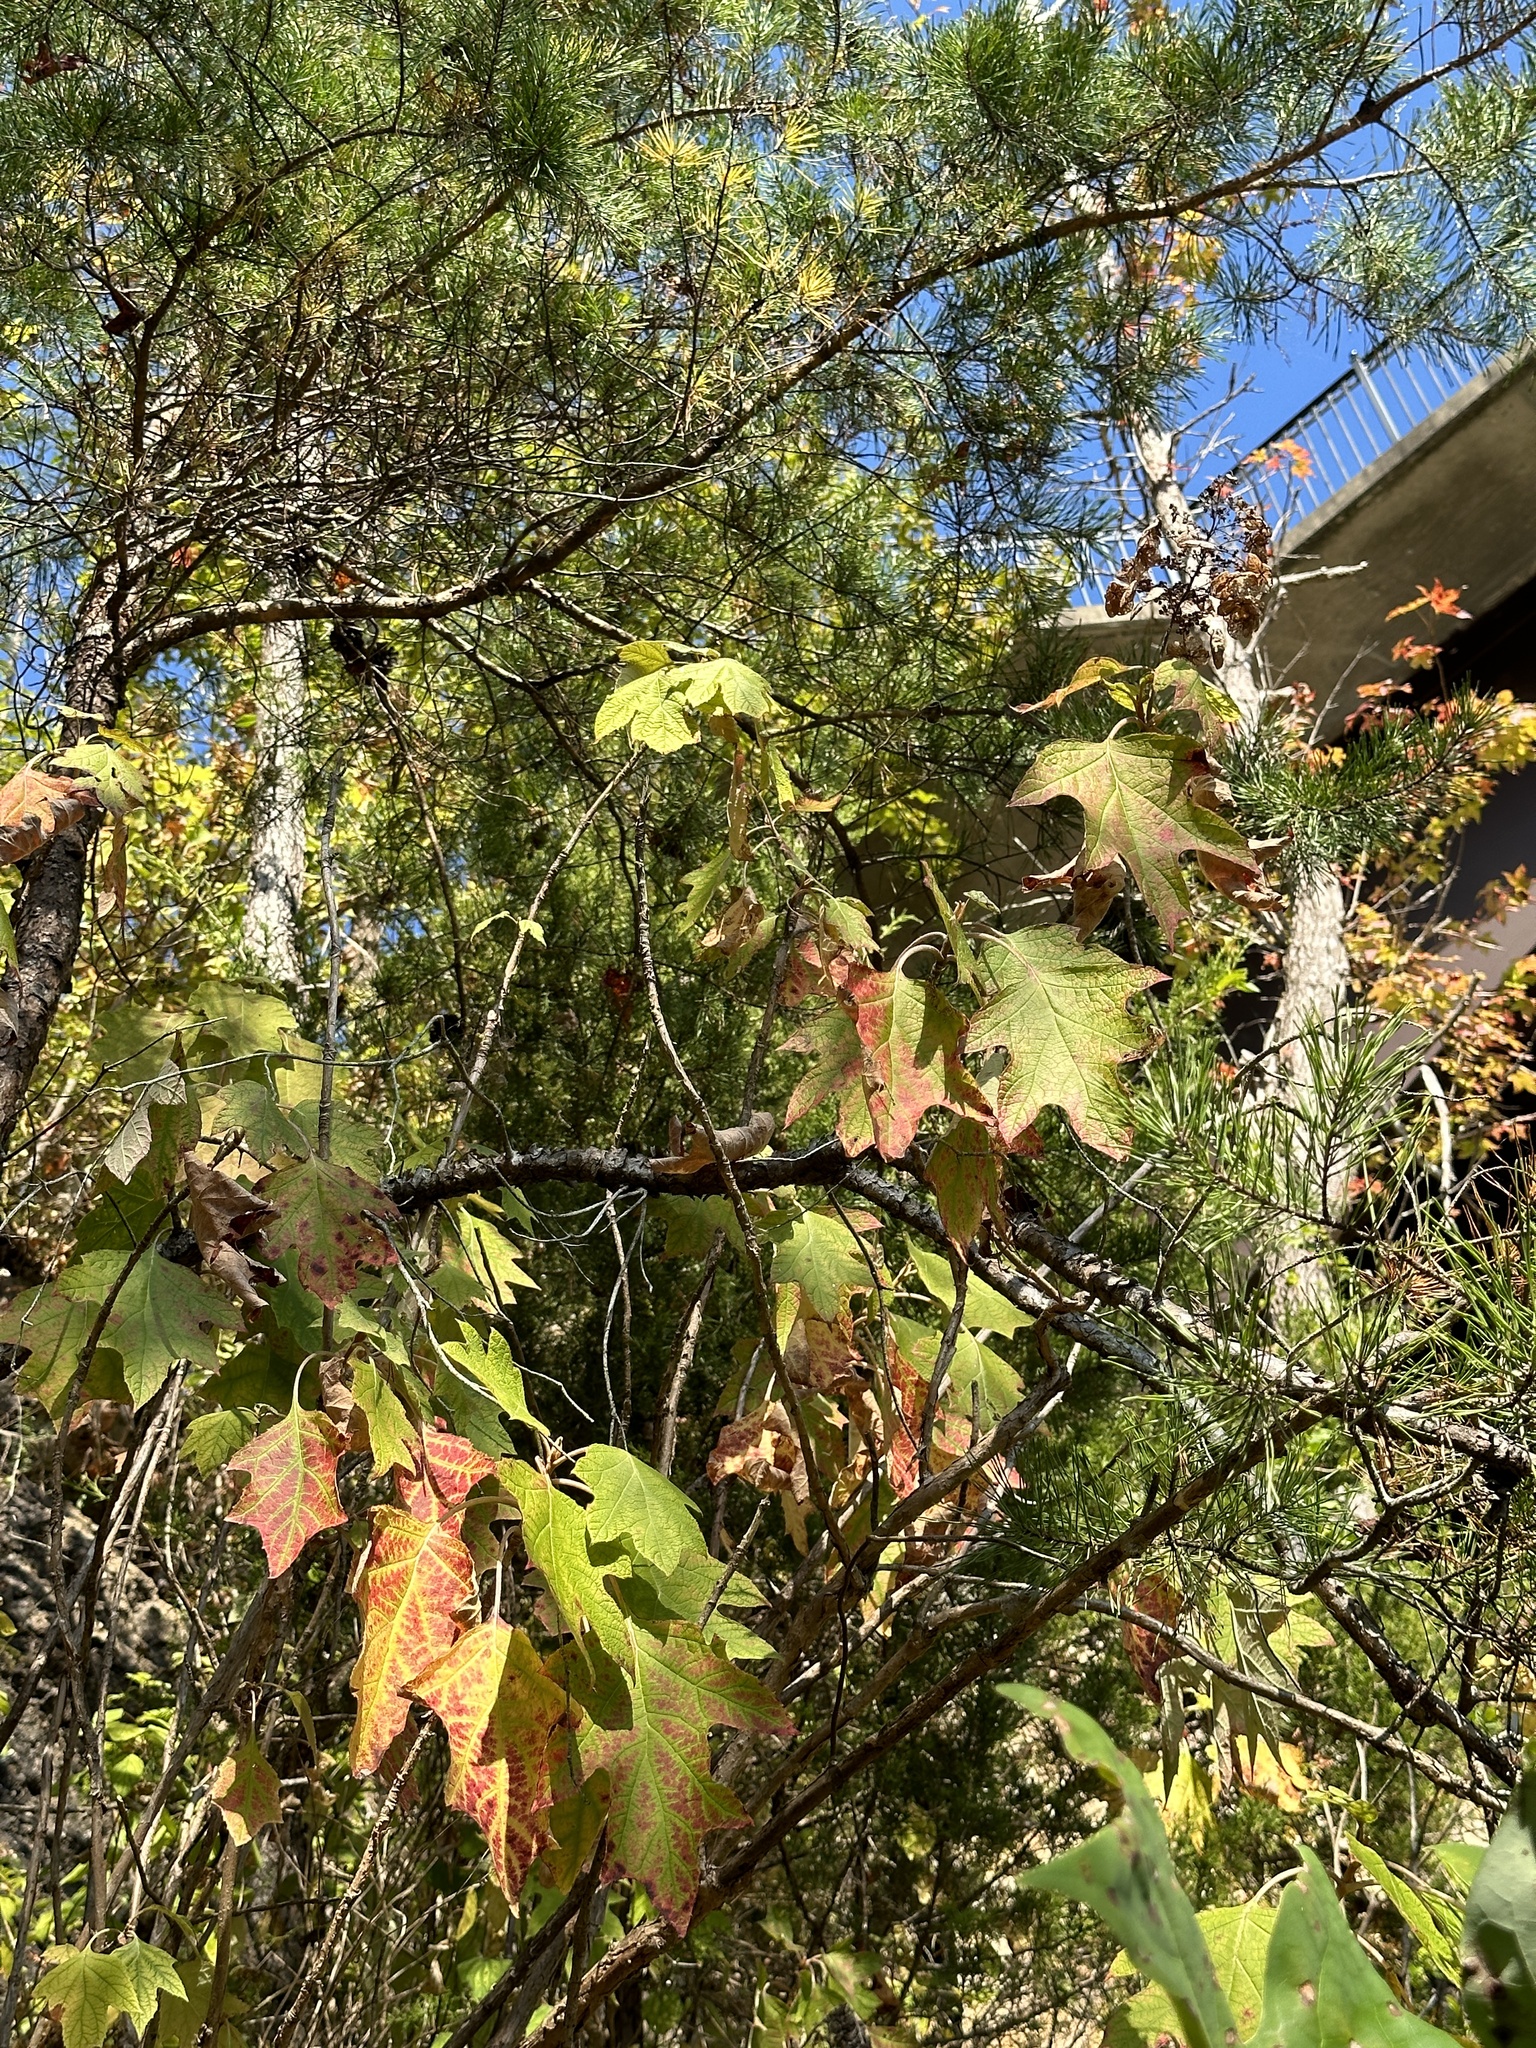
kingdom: Plantae
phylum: Tracheophyta
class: Magnoliopsida
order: Cornales
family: Hydrangeaceae
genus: Hydrangea
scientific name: Hydrangea quercifolia
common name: Oak-leaf hydrangea
